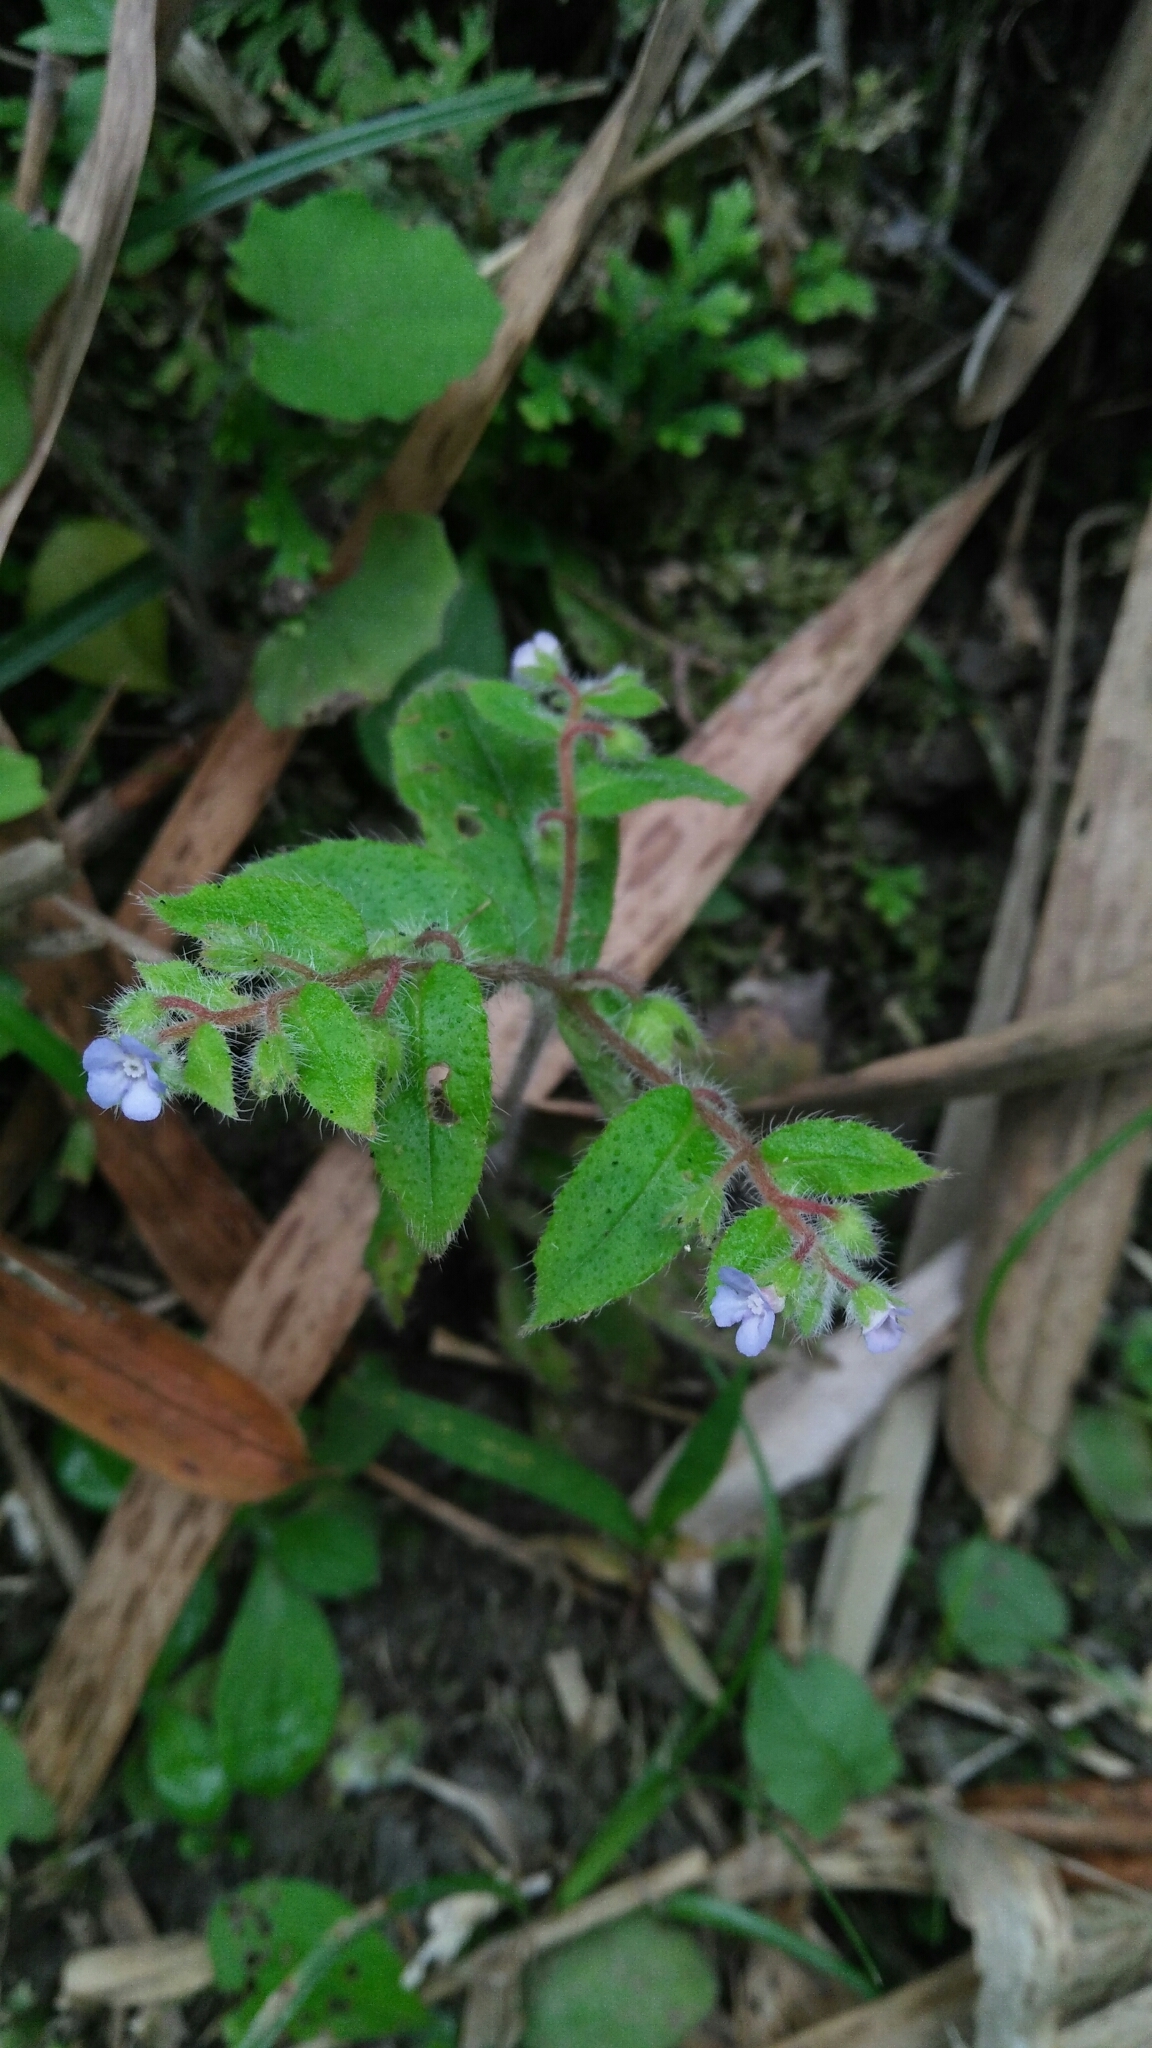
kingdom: Plantae
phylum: Tracheophyta
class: Magnoliopsida
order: Boraginales
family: Boraginaceae
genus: Thyrocarpus
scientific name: Thyrocarpus sampsonii
